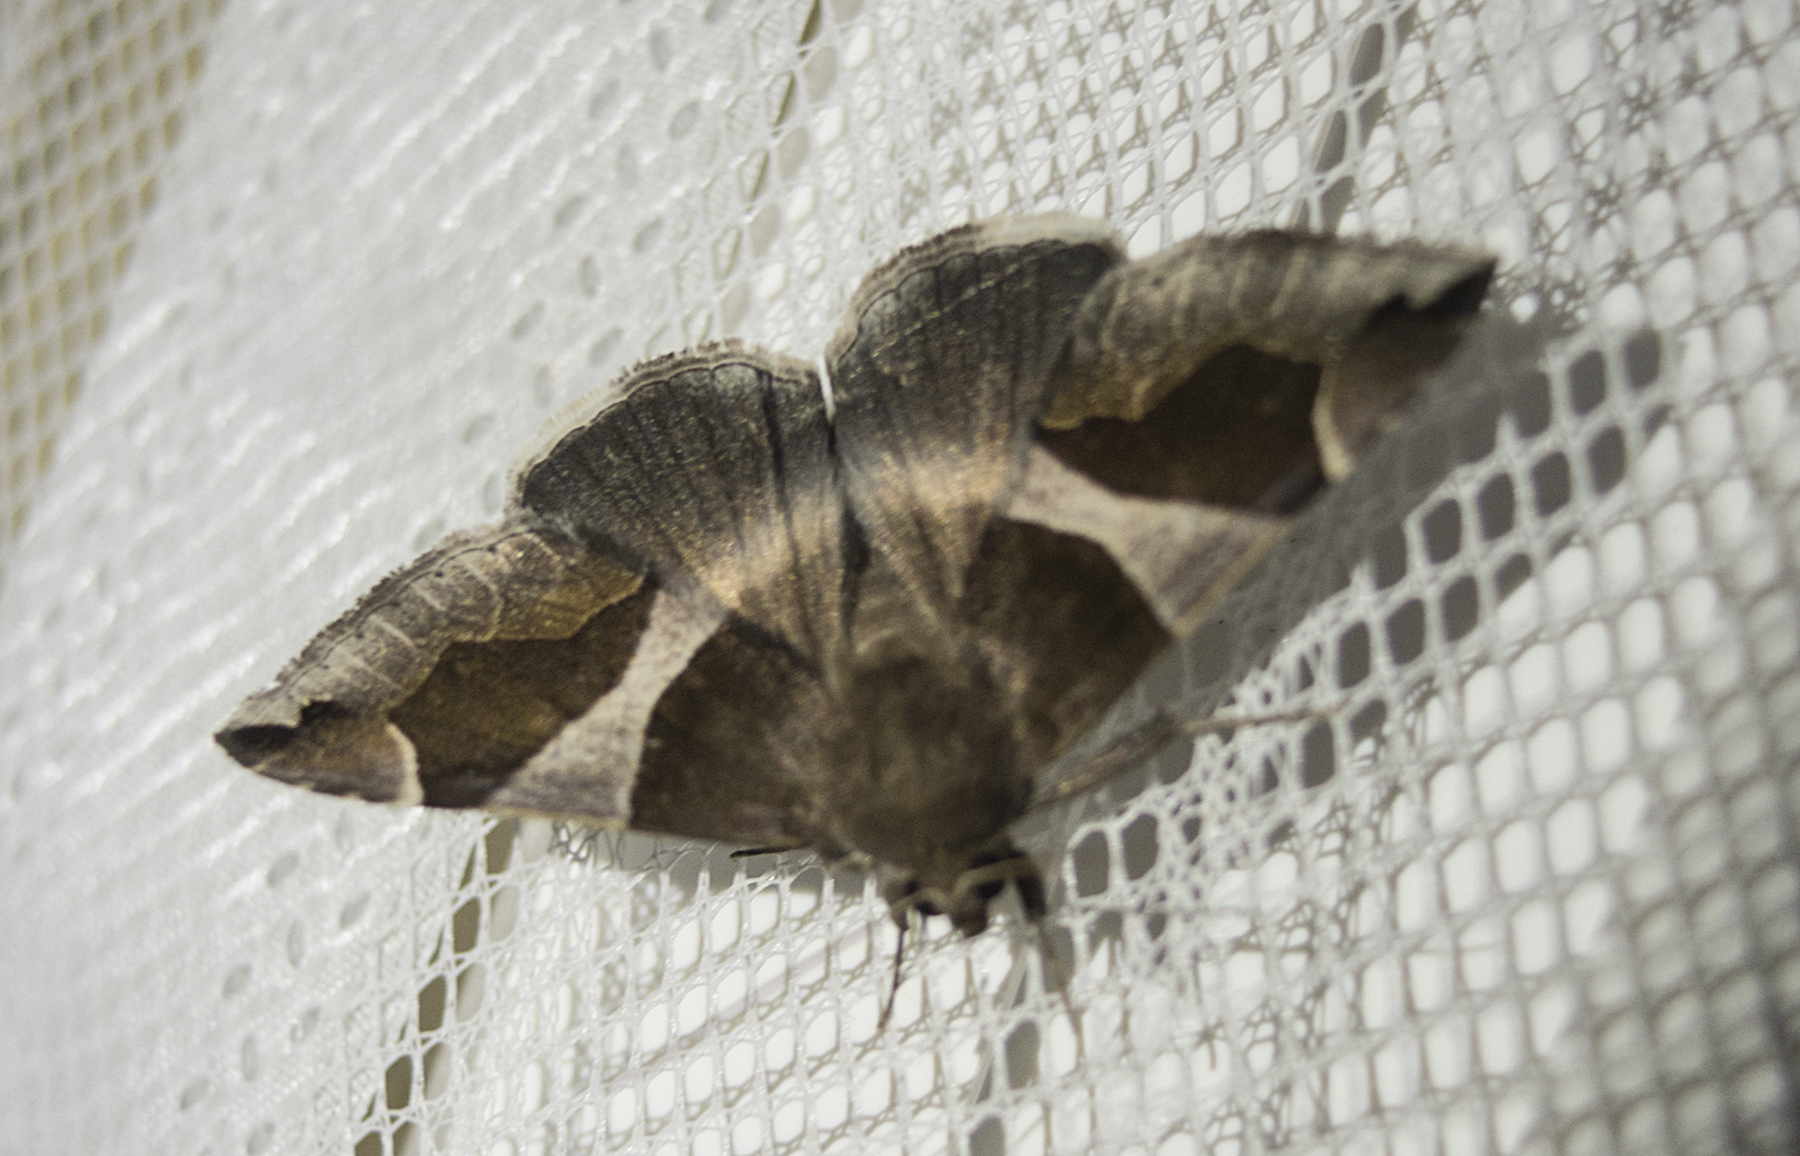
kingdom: Animalia
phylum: Arthropoda
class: Insecta
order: Lepidoptera
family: Erebidae
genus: Dysgonia
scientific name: Dysgonia algira
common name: Passenger
